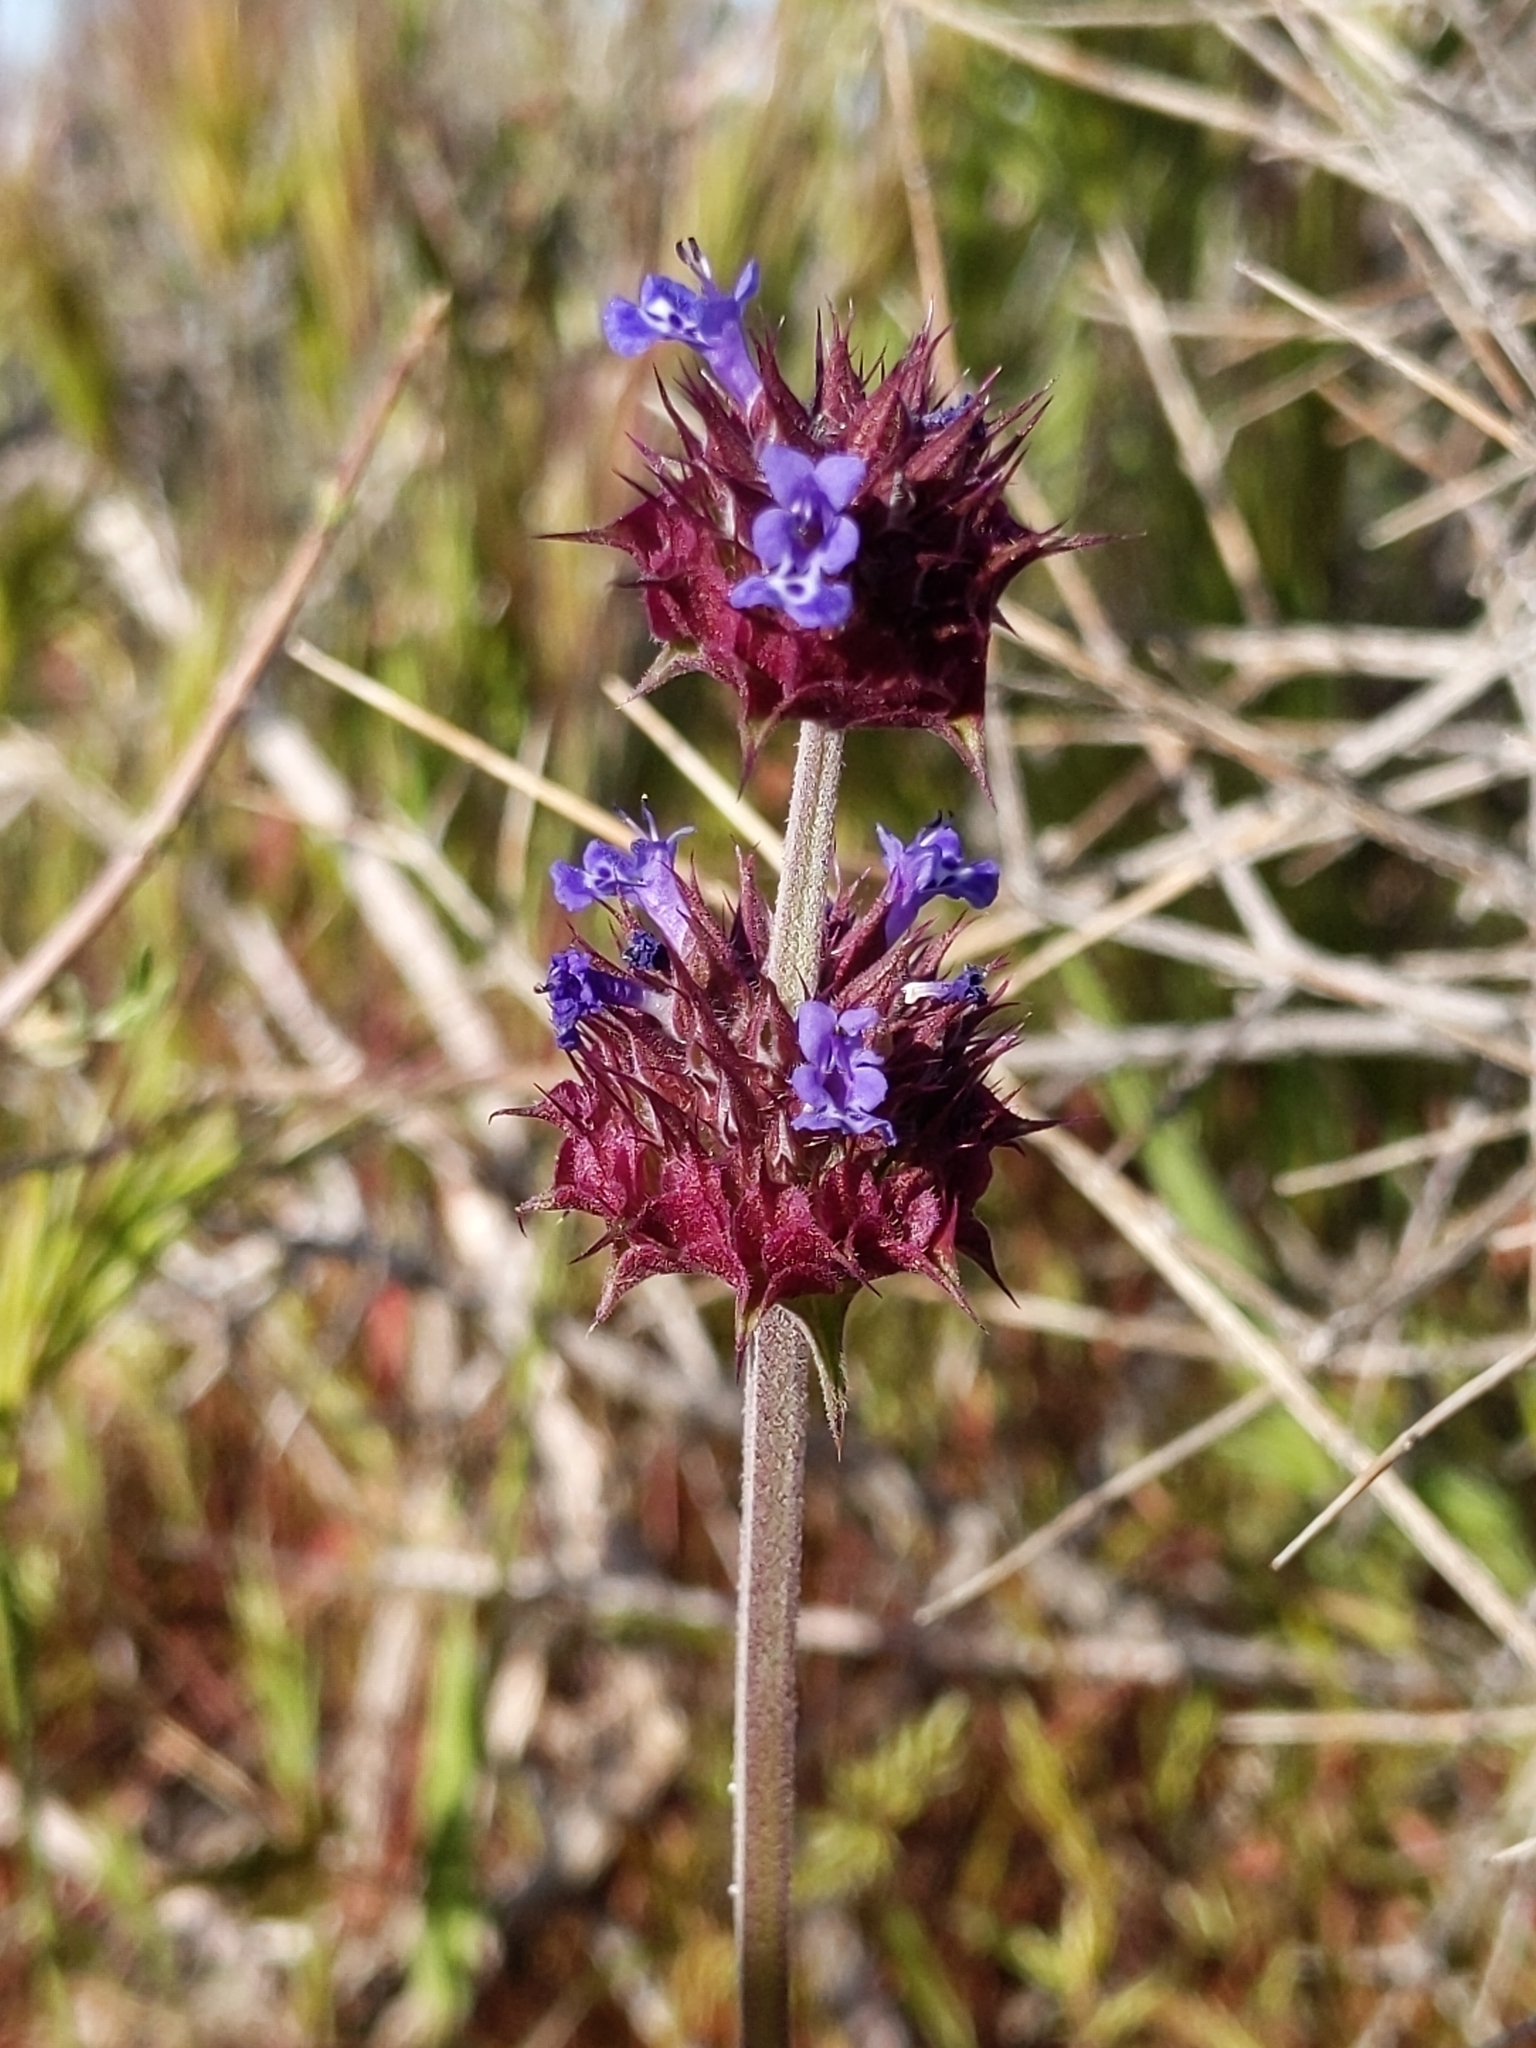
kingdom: Plantae
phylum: Tracheophyta
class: Magnoliopsida
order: Lamiales
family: Lamiaceae
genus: Salvia
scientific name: Salvia columbariae
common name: Chia
